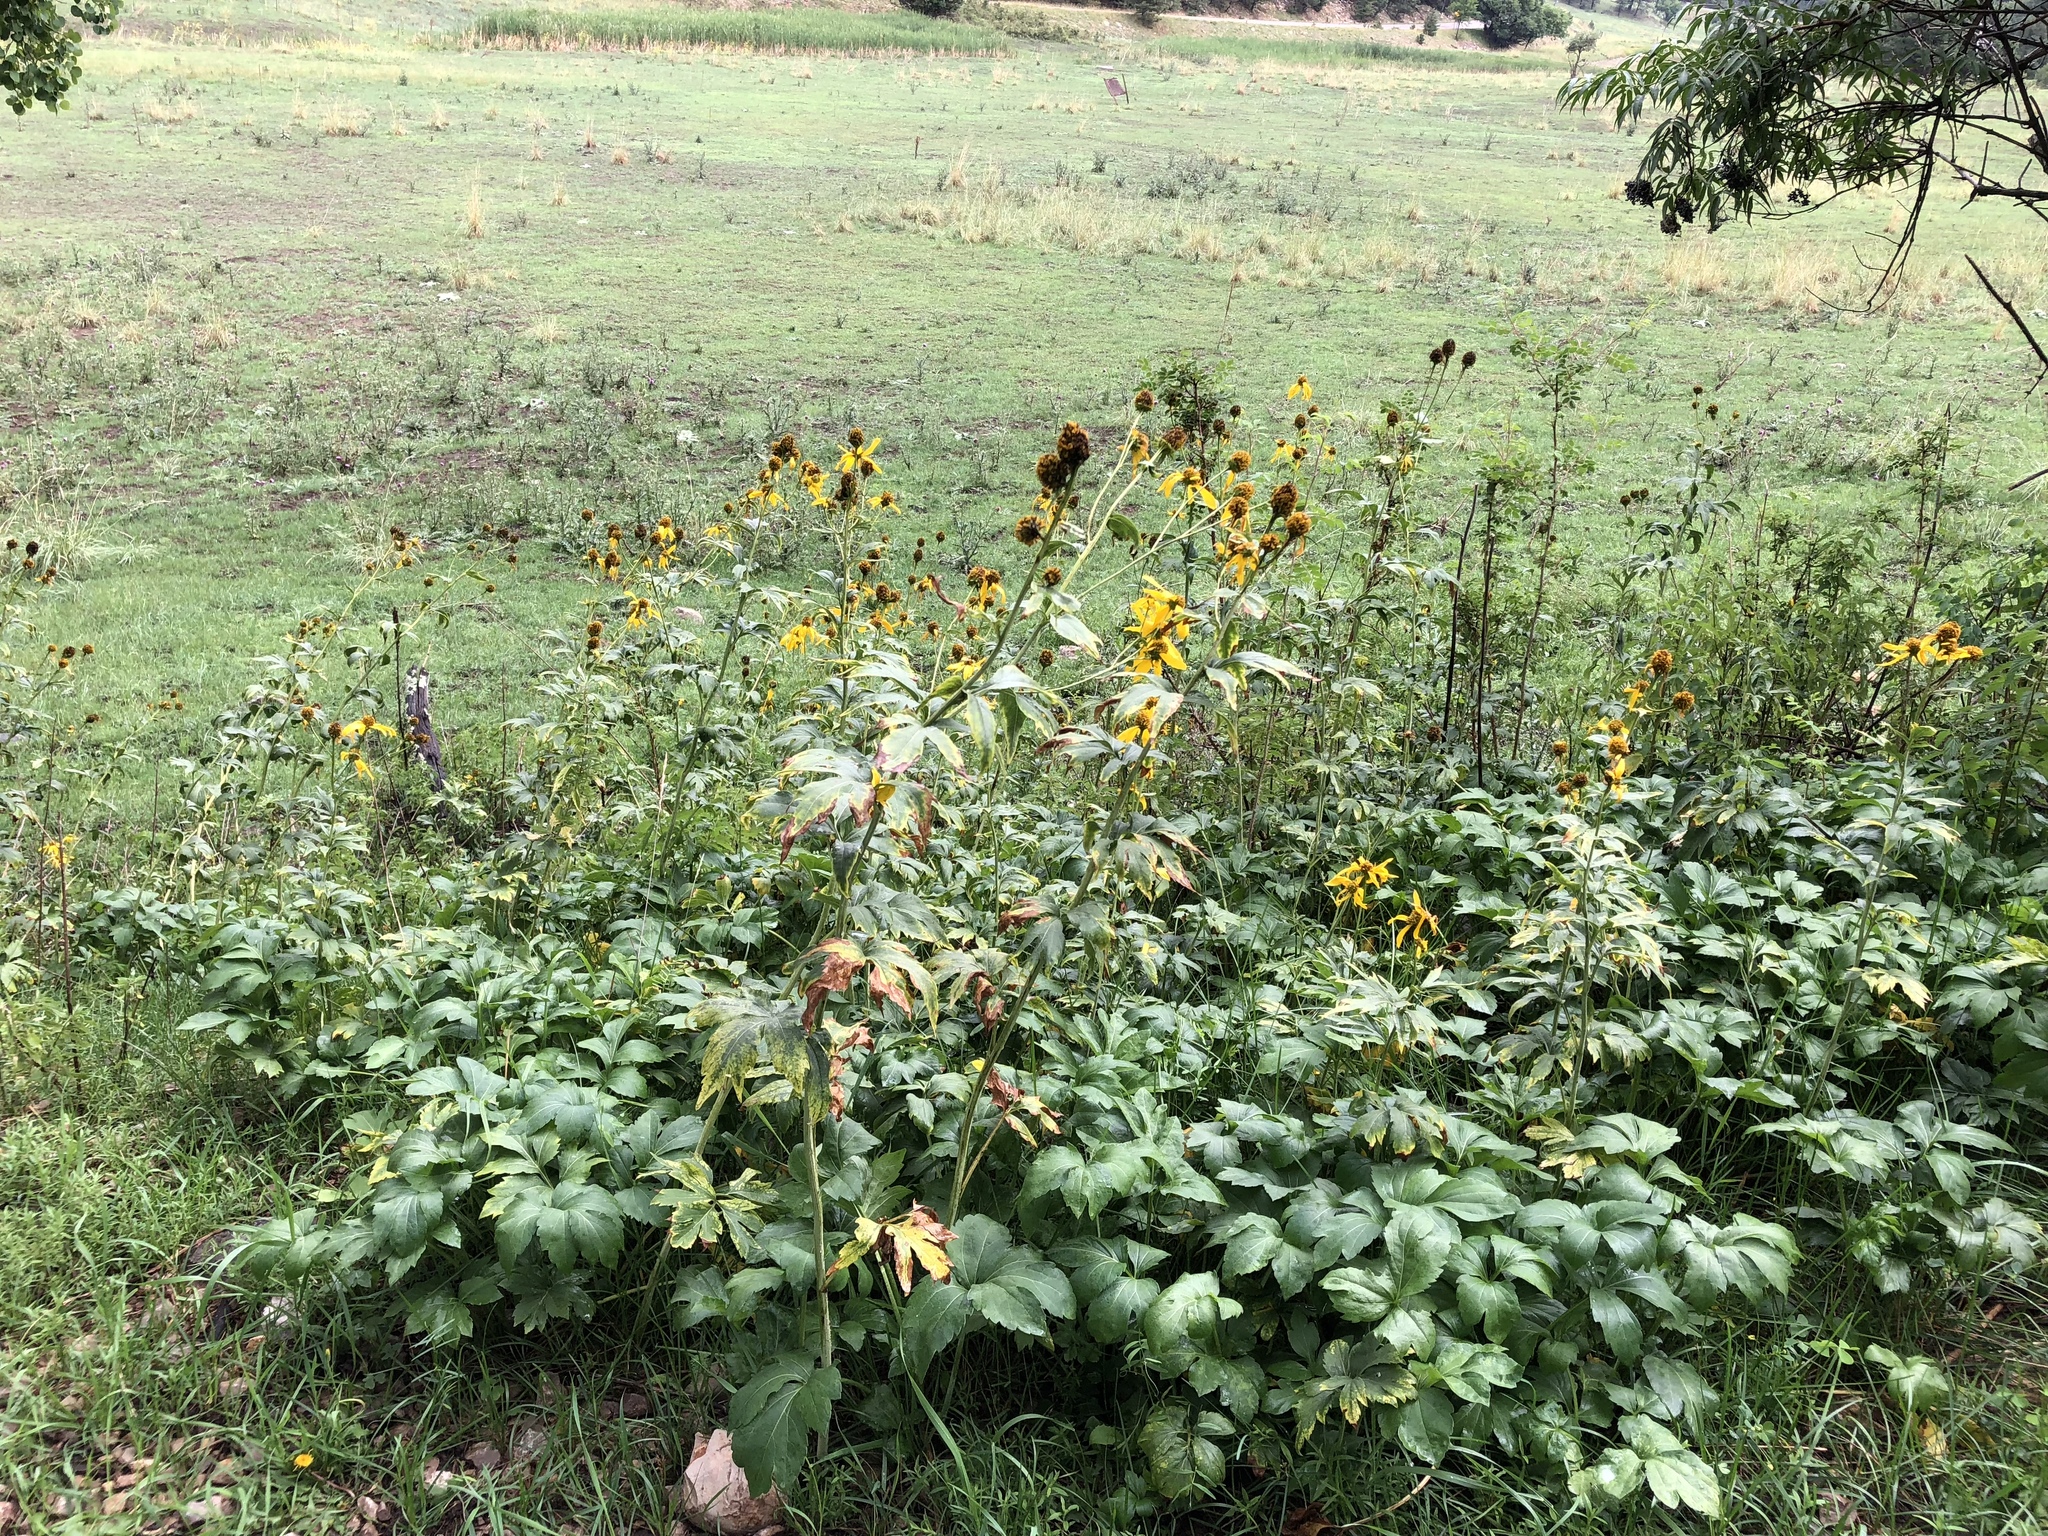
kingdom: Plantae
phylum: Tracheophyta
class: Magnoliopsida
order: Asterales
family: Asteraceae
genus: Rudbeckia
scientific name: Rudbeckia laciniata
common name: Coneflower
